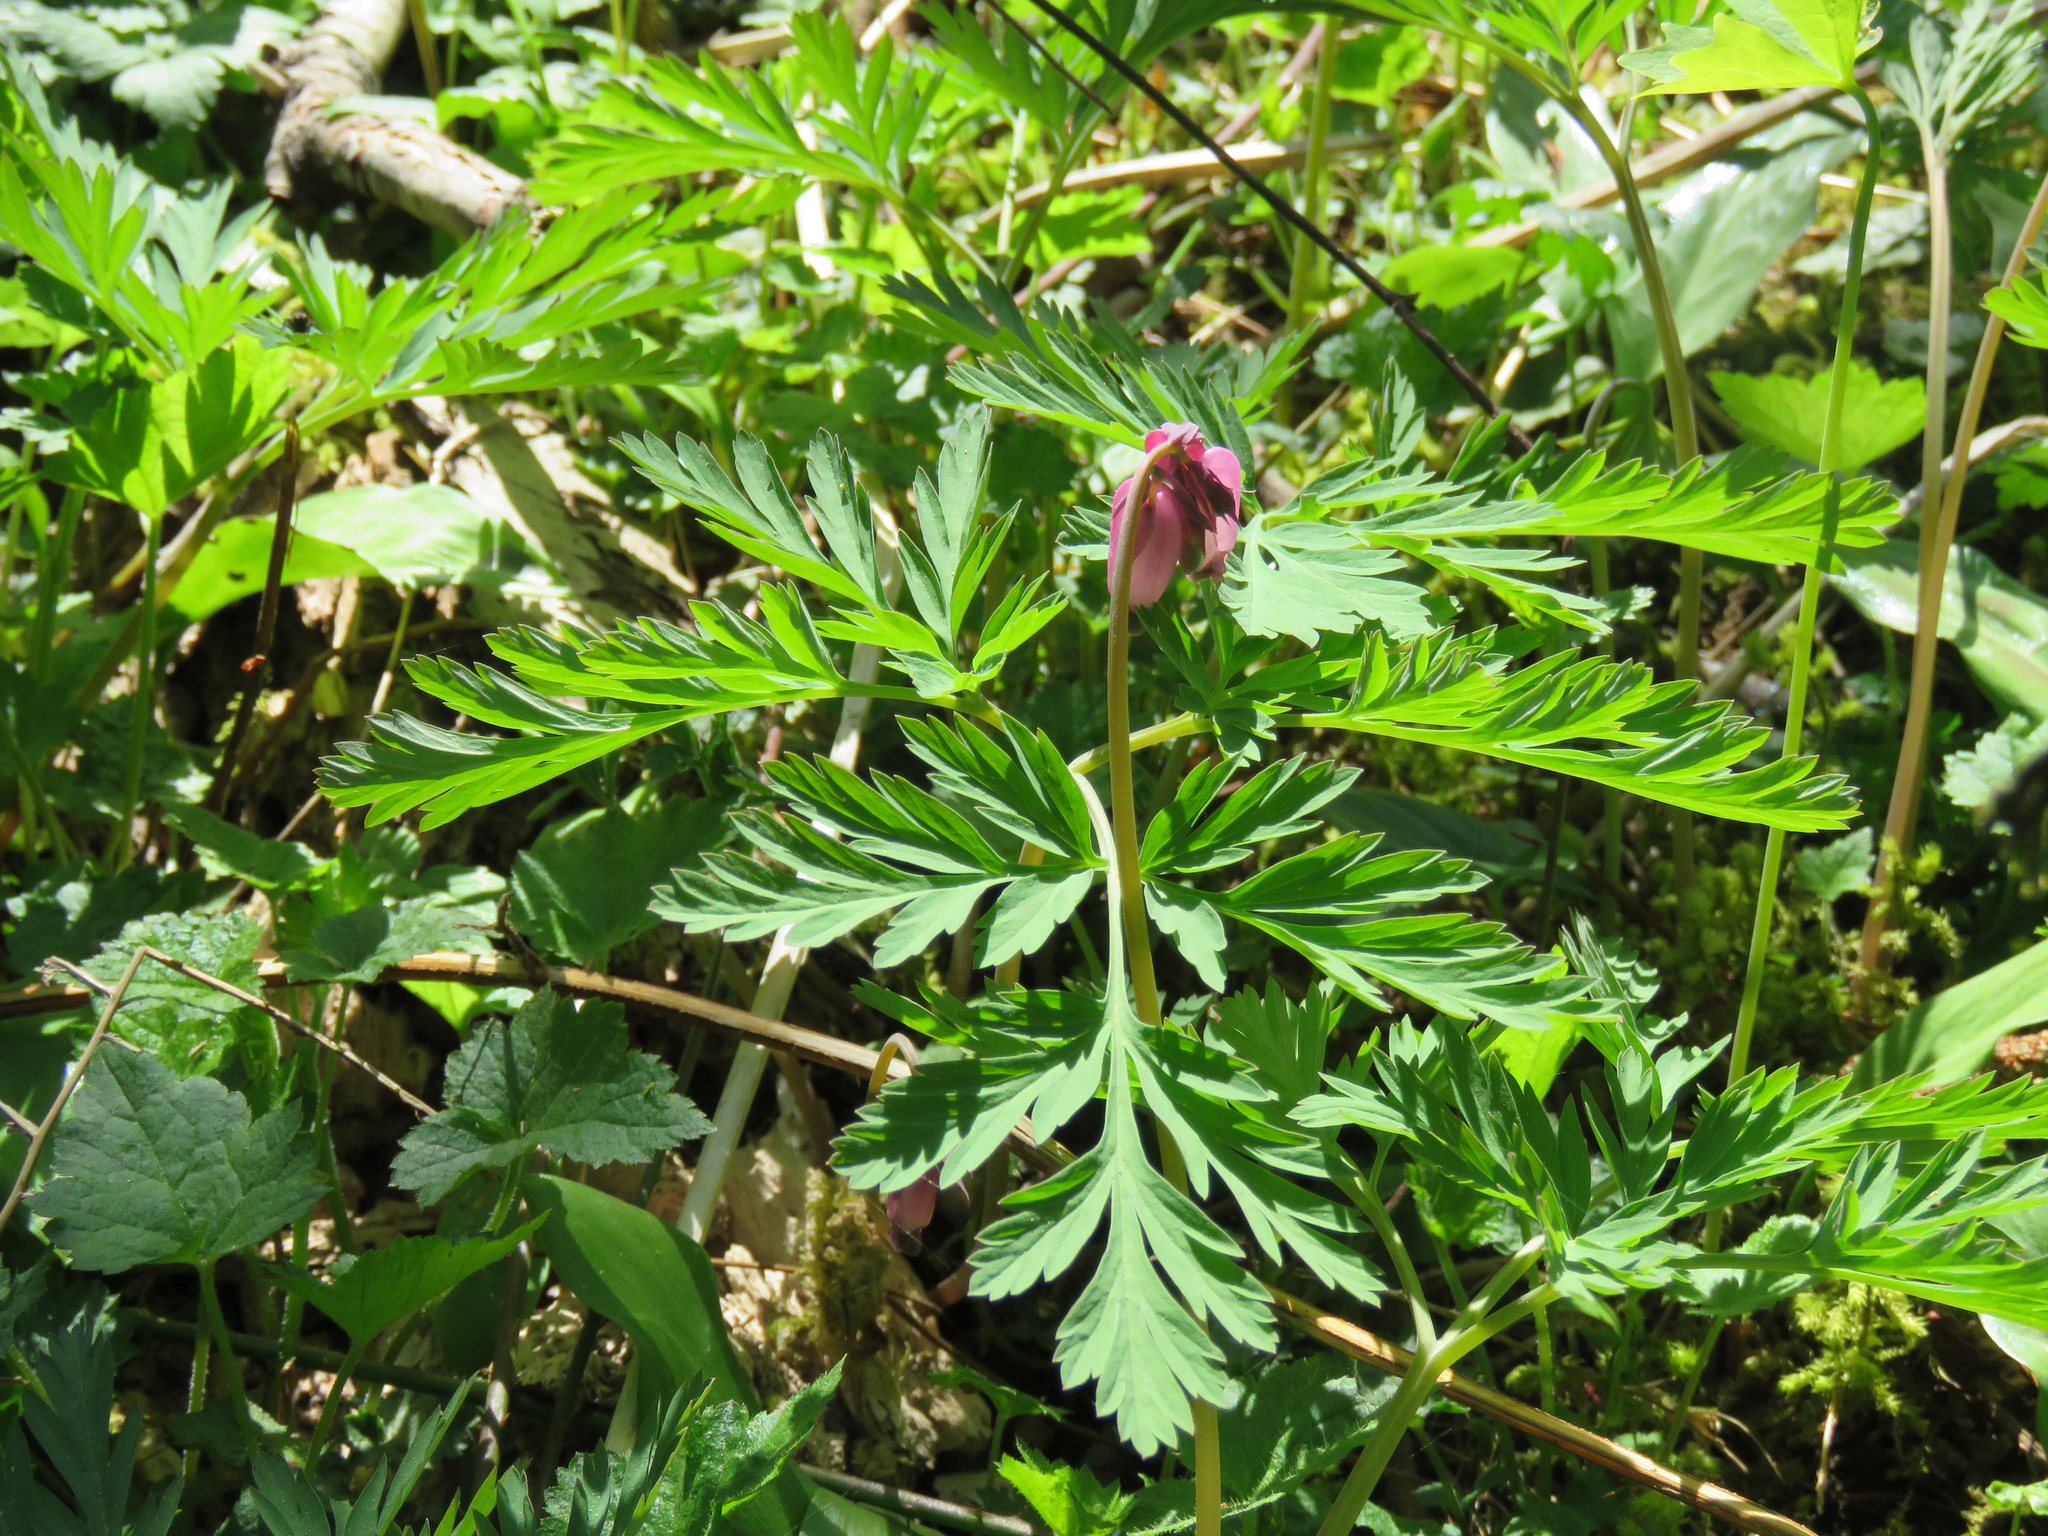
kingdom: Plantae
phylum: Tracheophyta
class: Magnoliopsida
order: Ranunculales
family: Papaveraceae
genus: Dicentra
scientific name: Dicentra formosa
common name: Bleeding-heart
